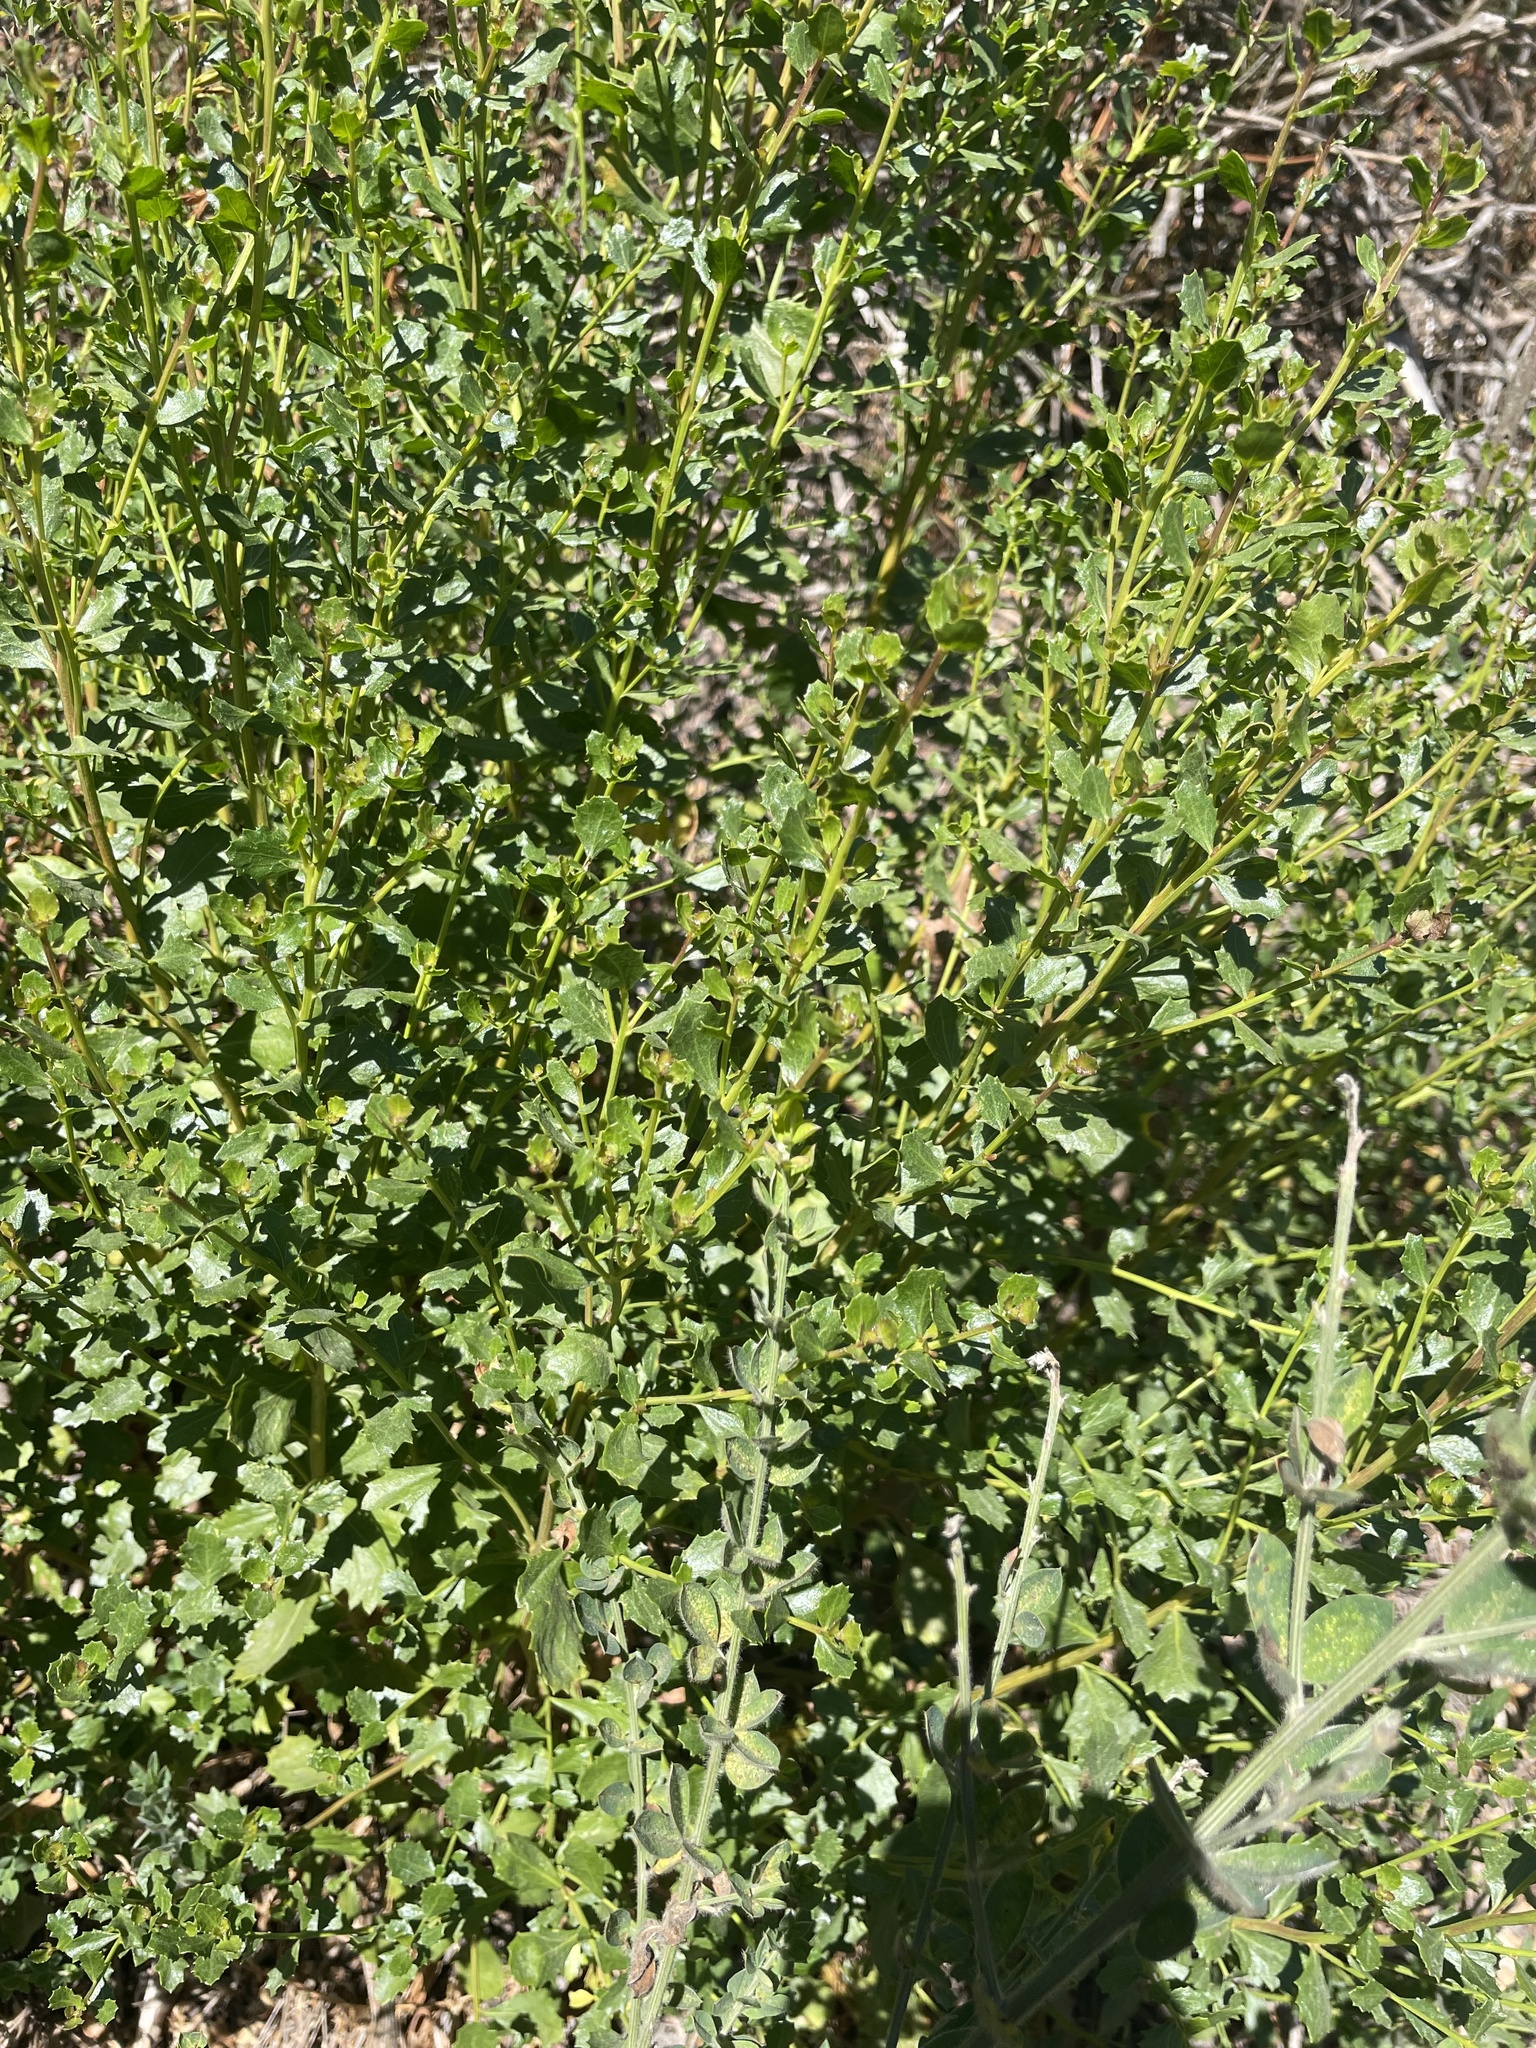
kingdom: Animalia
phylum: Arthropoda
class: Insecta
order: Diptera
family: Cecidomyiidae
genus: Rhopalomyia
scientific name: Rhopalomyia californica
